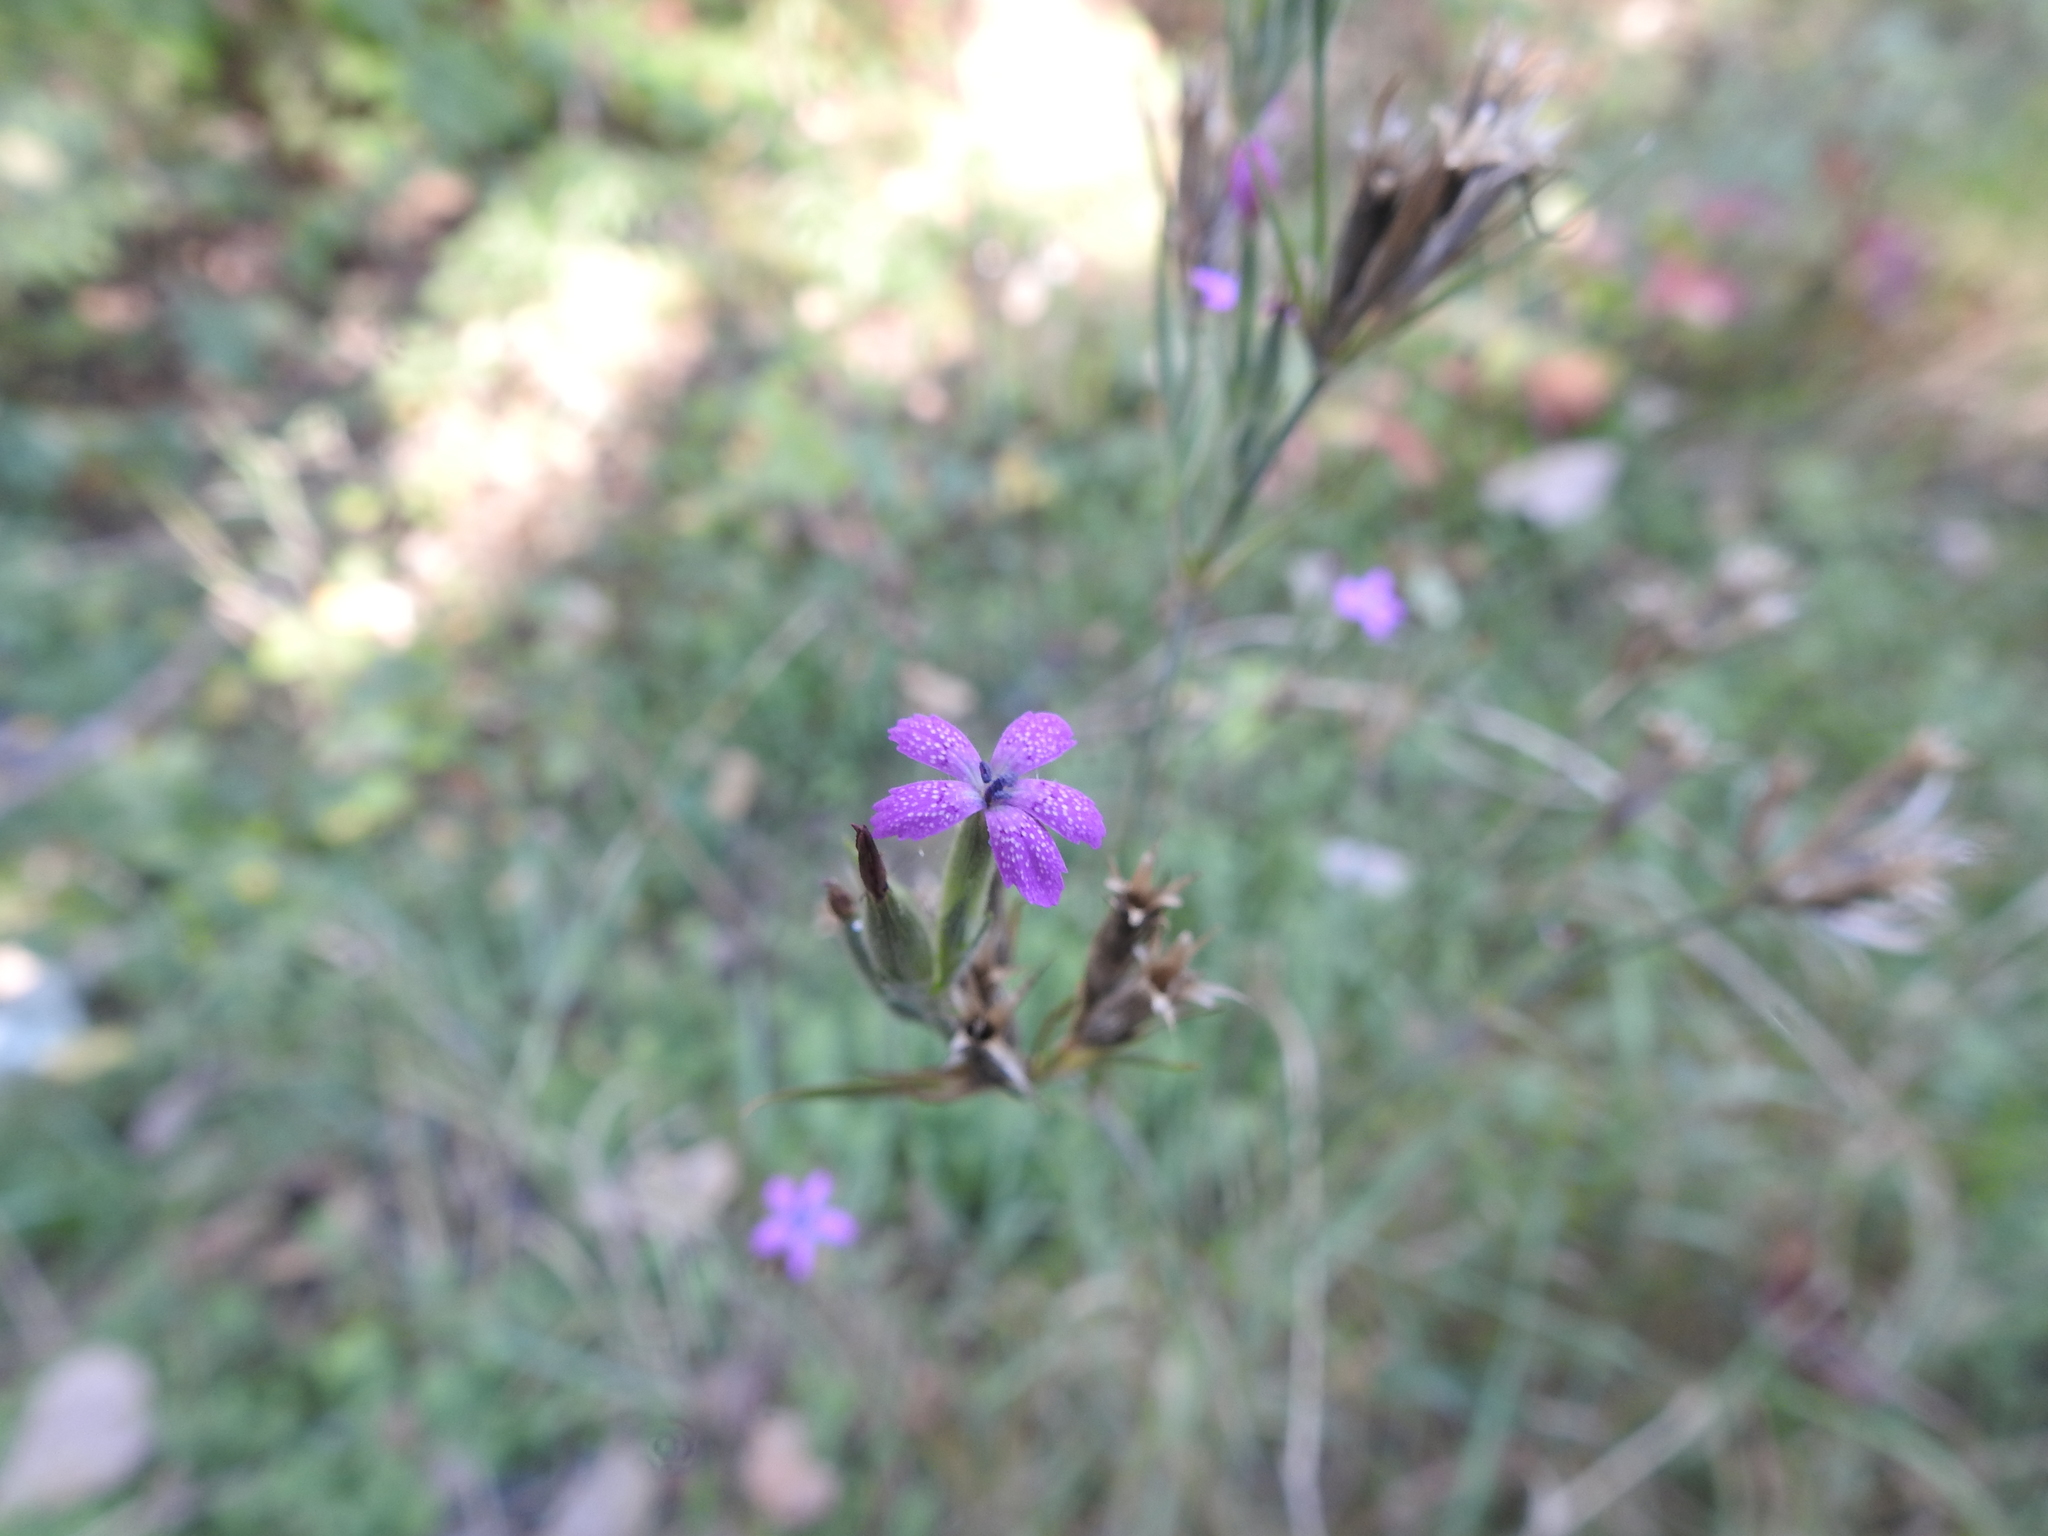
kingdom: Plantae
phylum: Tracheophyta
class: Magnoliopsida
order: Caryophyllales
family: Caryophyllaceae
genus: Dianthus
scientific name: Dianthus armeria
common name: Deptford pink
